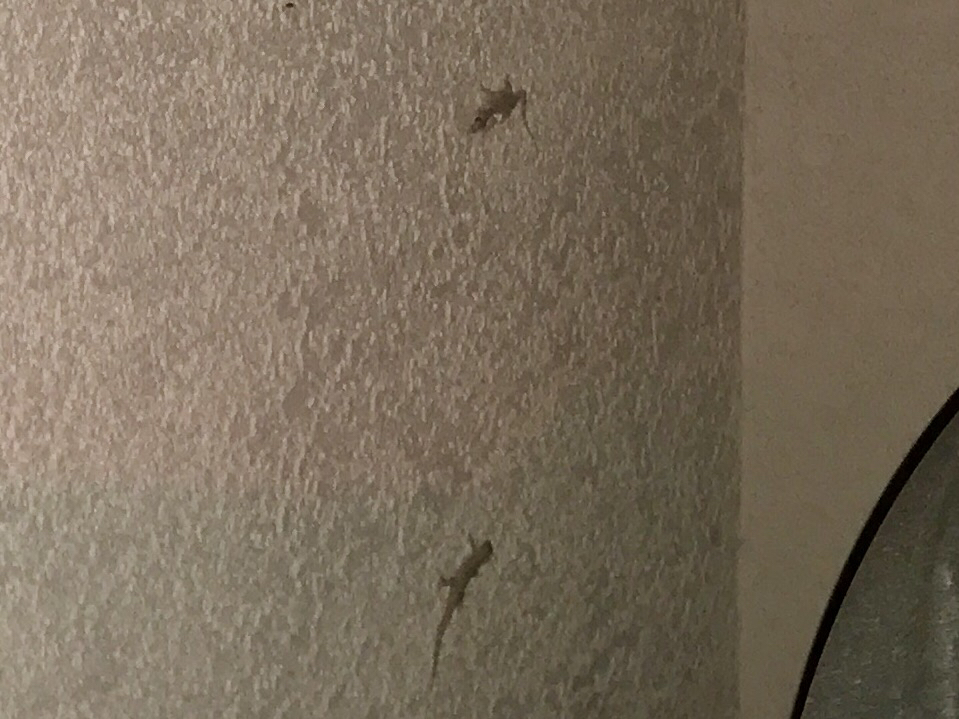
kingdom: Animalia
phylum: Chordata
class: Squamata
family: Gekkonidae
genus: Hemidactylus
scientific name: Hemidactylus turcicus
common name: Turkish gecko
